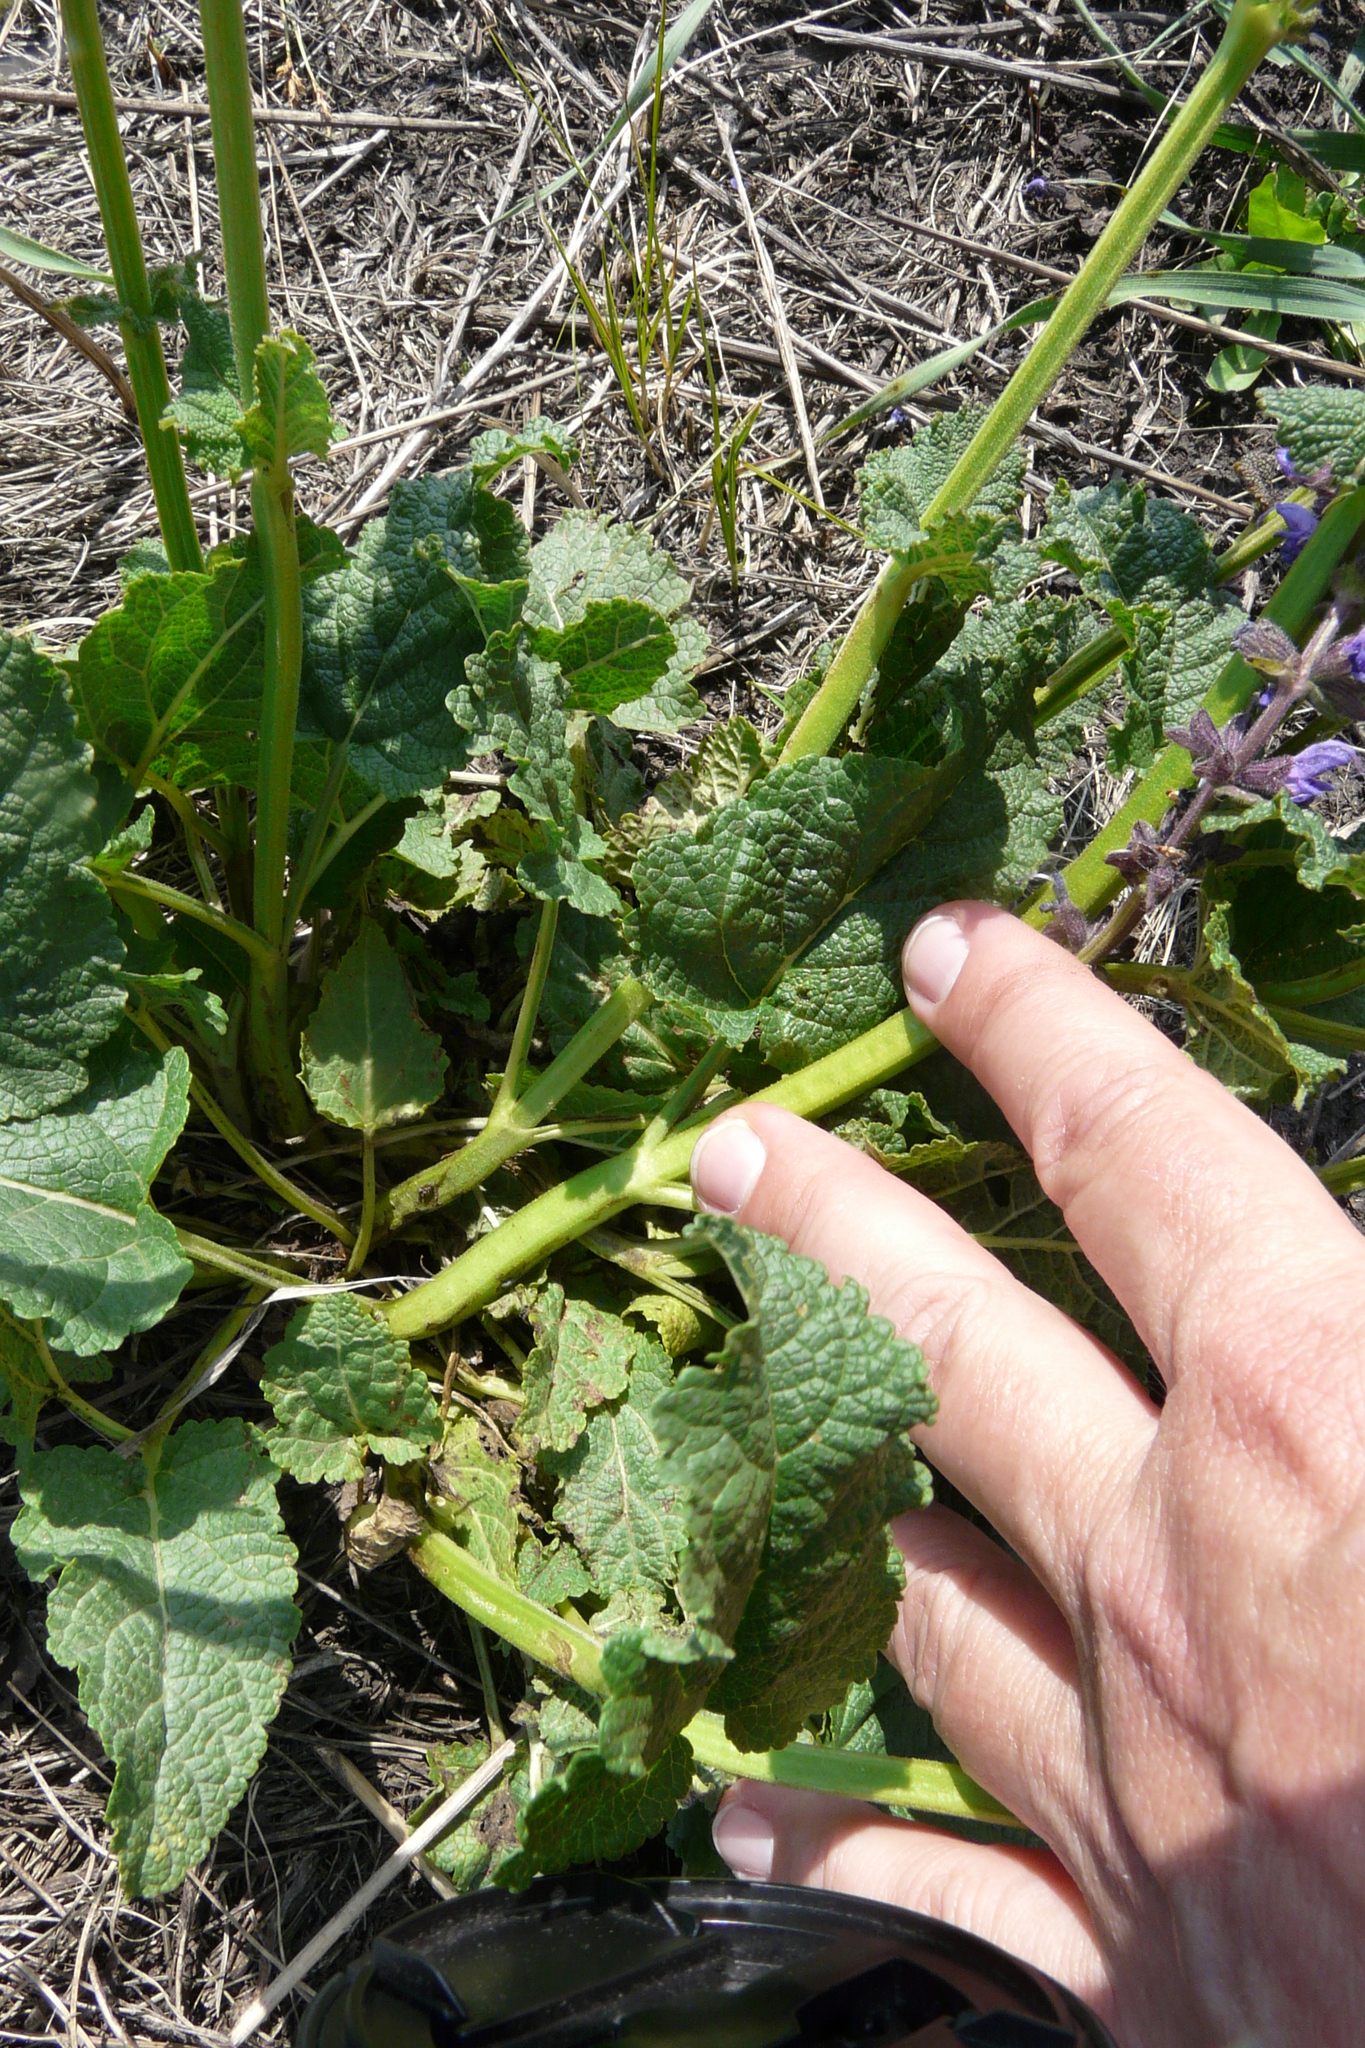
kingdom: Plantae
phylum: Tracheophyta
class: Magnoliopsida
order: Lamiales
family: Lamiaceae
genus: Salvia
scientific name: Salvia dumetorum
